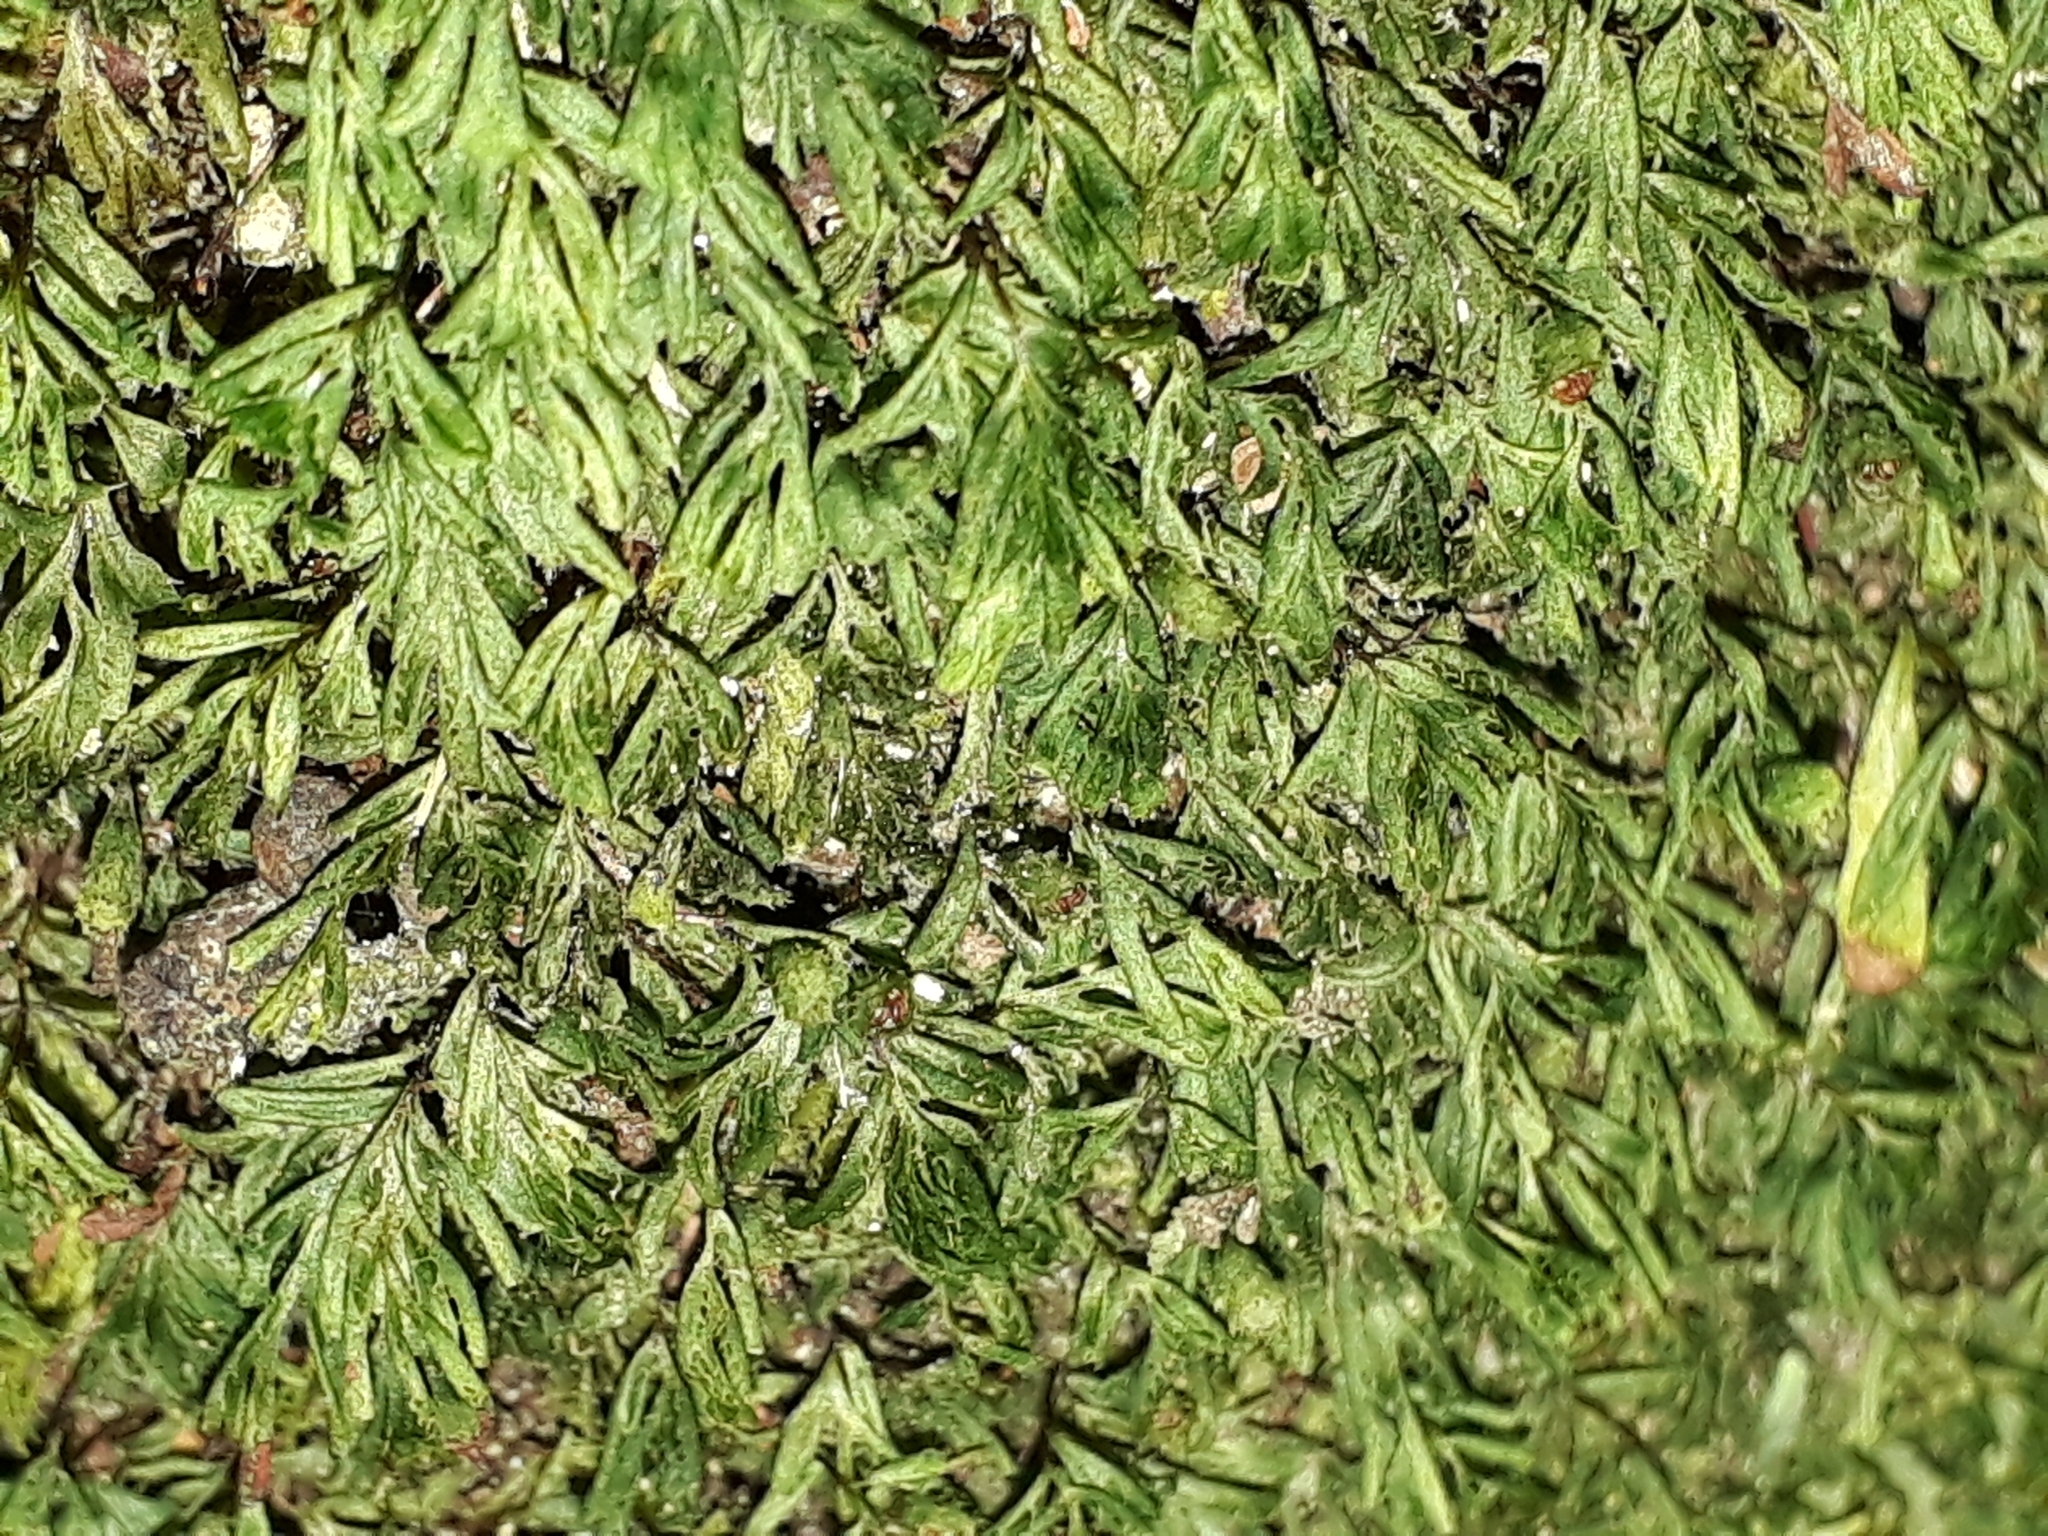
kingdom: Plantae
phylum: Tracheophyta
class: Polypodiopsida
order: Hymenophyllales
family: Hymenophyllaceae
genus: Hymenophyllum
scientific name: Hymenophyllum minimum
